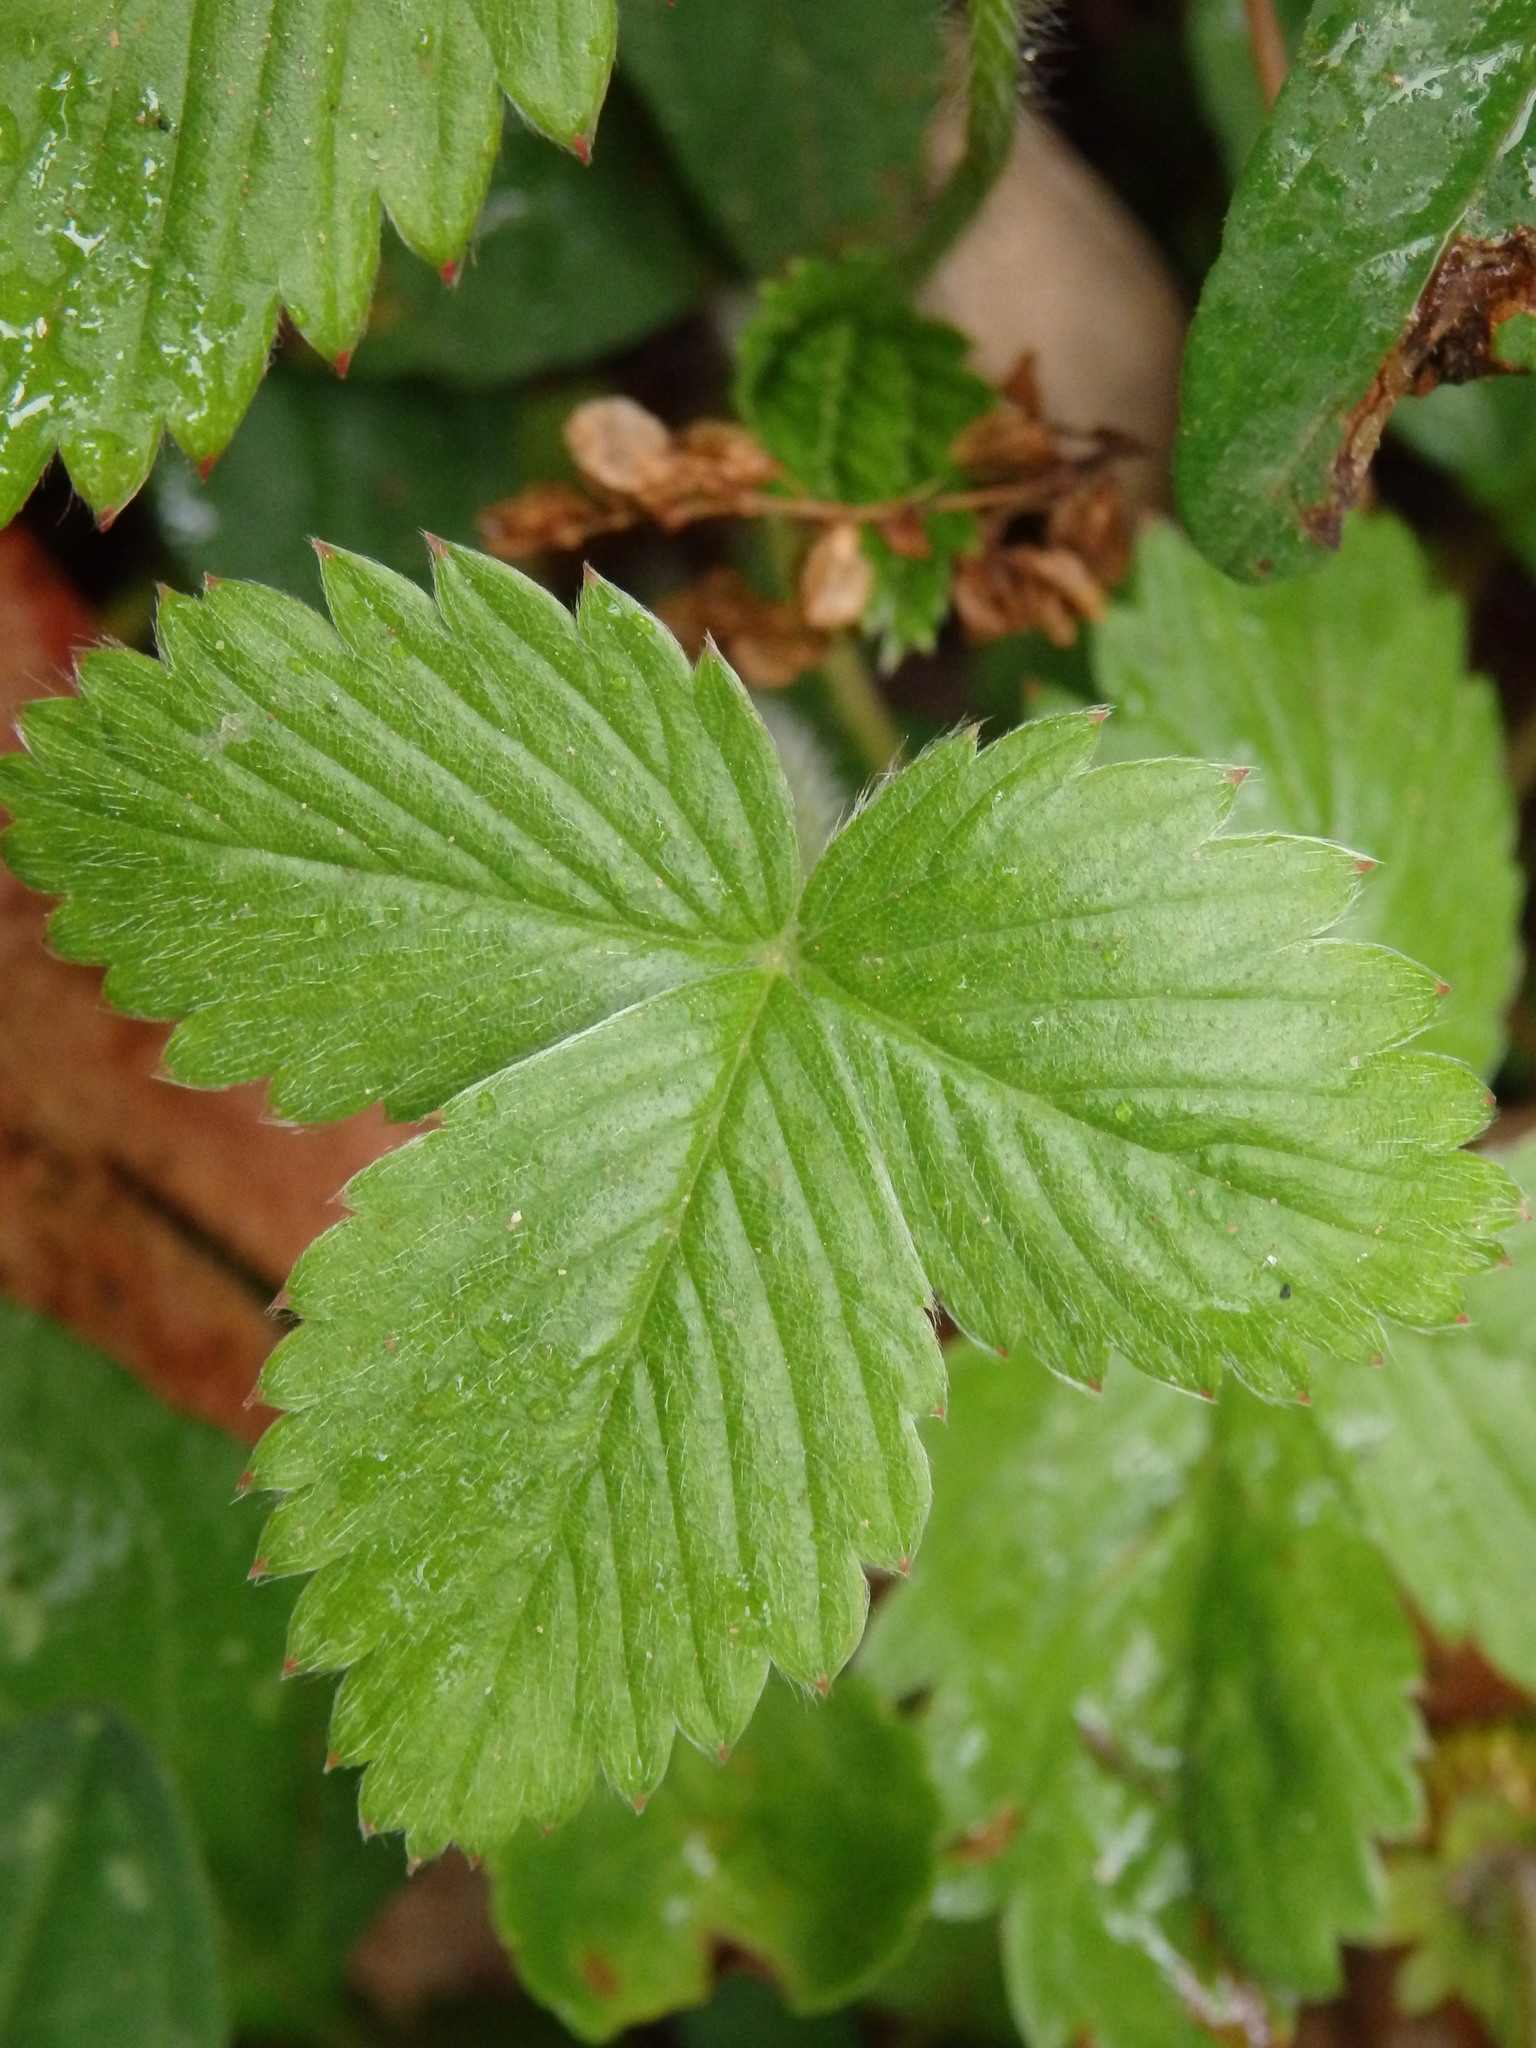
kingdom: Plantae
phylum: Tracheophyta
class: Magnoliopsida
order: Rosales
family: Rosaceae
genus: Fragaria
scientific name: Fragaria vesca
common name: Wild strawberry
